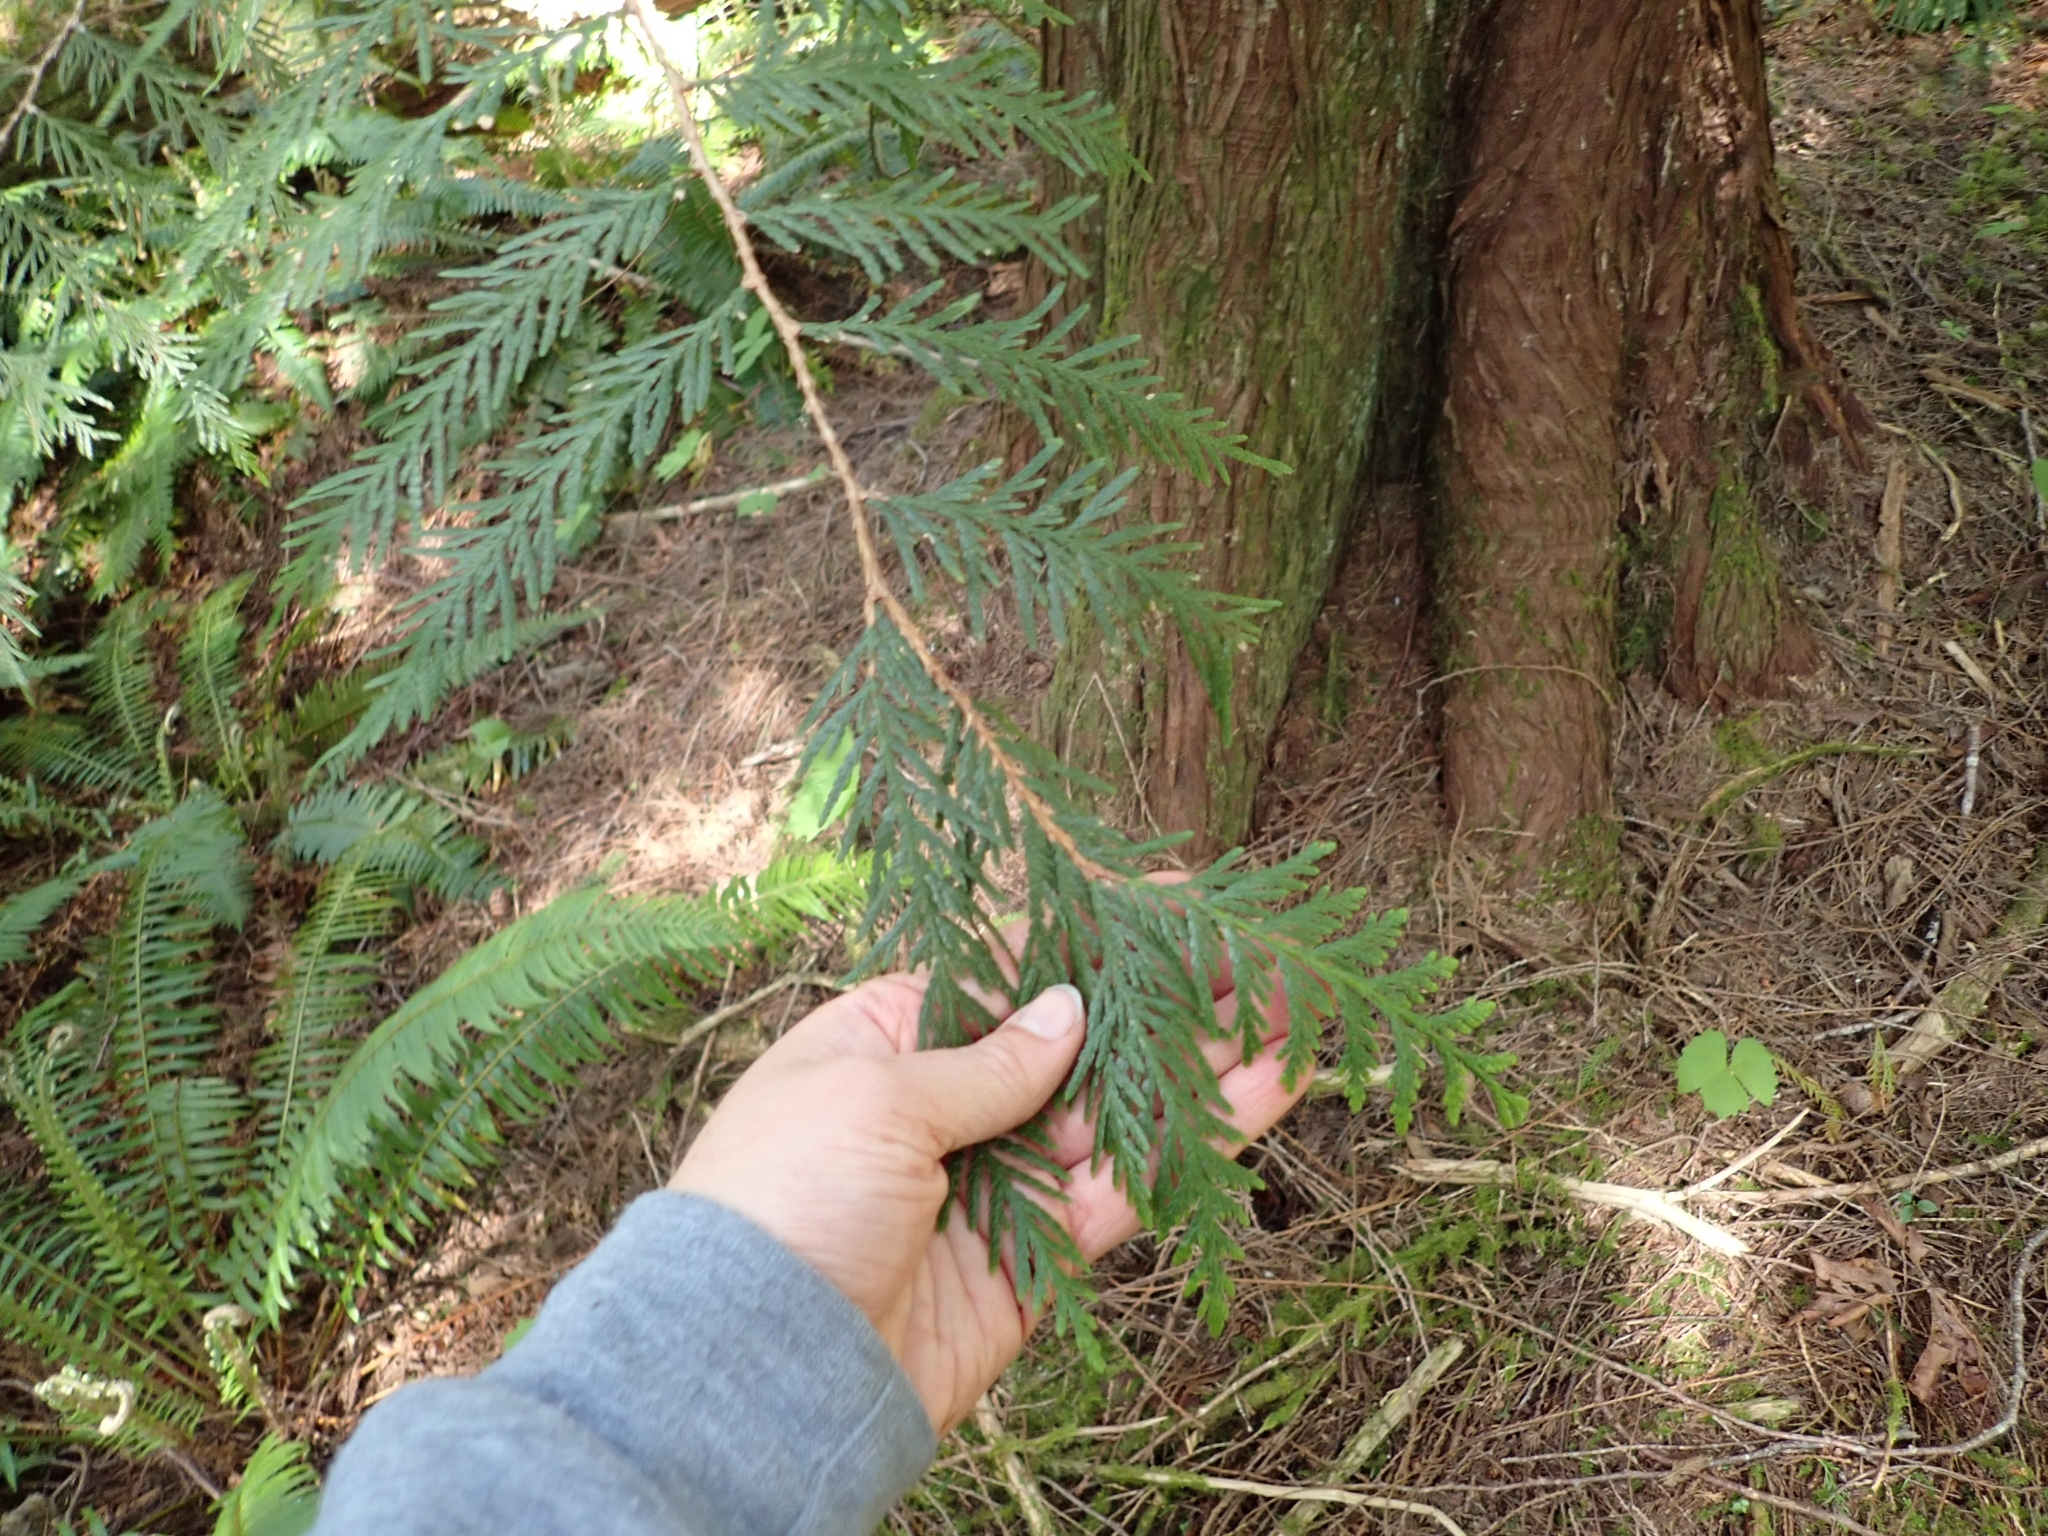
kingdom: Plantae
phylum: Tracheophyta
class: Pinopsida
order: Pinales
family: Cupressaceae
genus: Thuja
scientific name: Thuja plicata
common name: Western red-cedar
